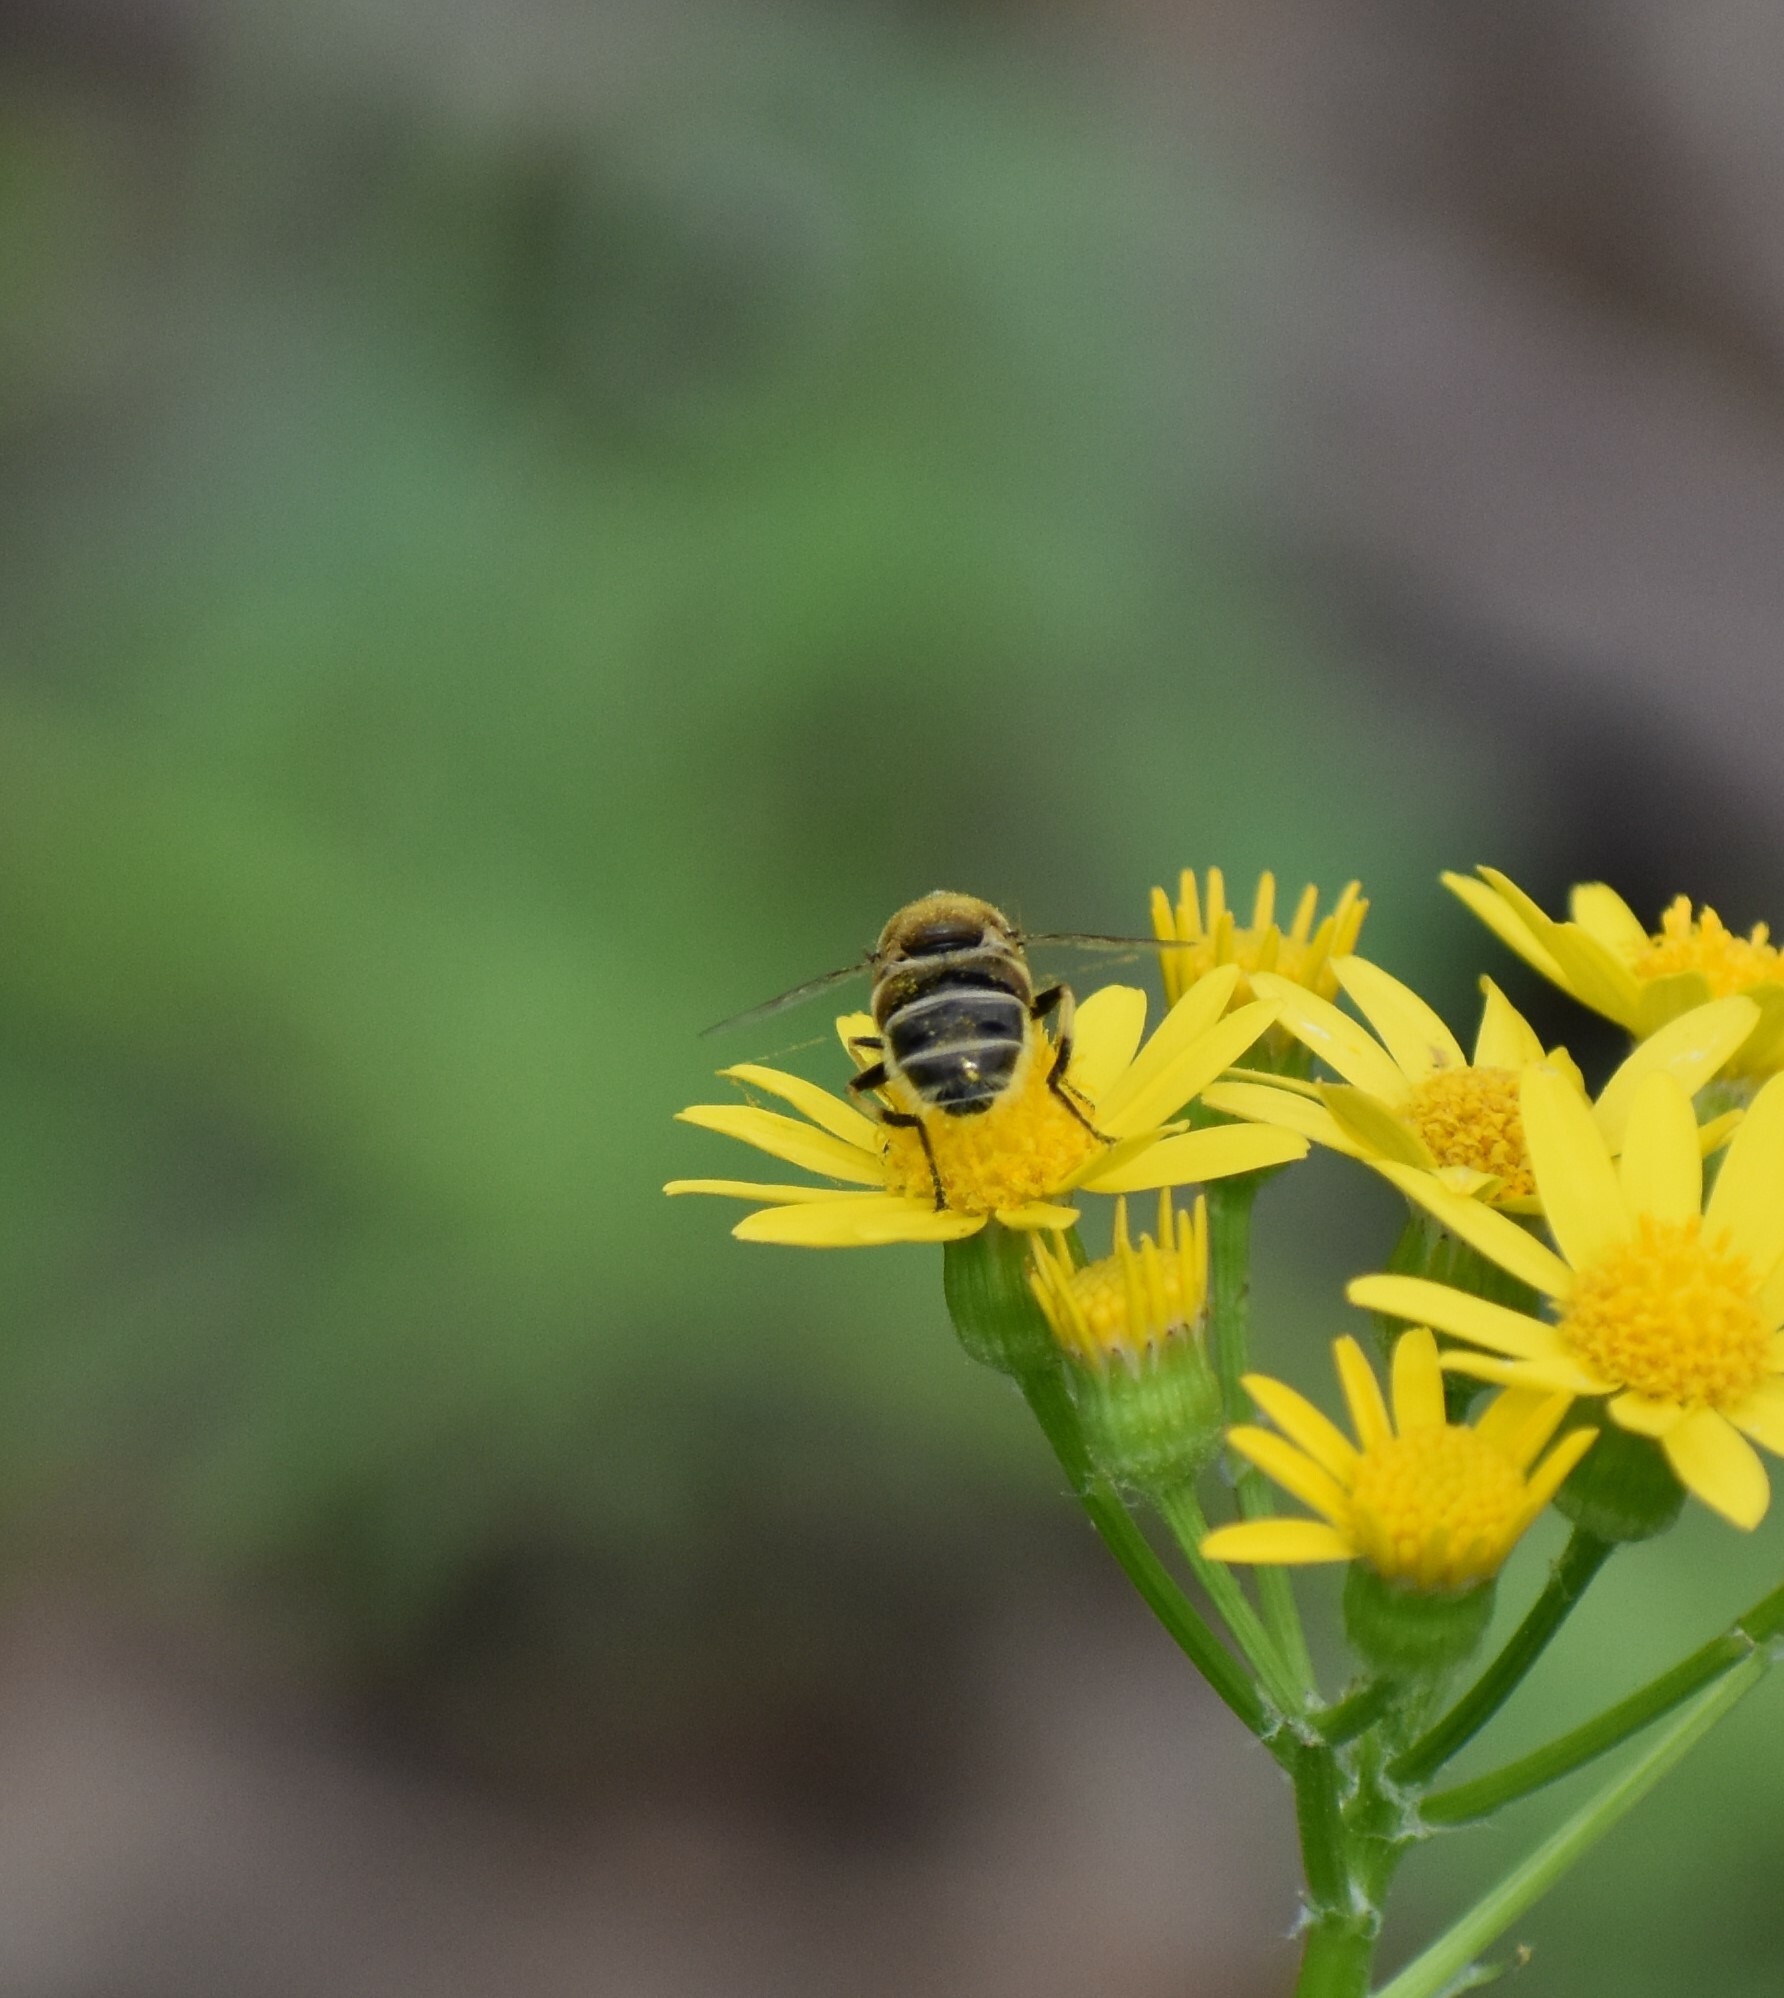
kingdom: Animalia
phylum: Arthropoda
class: Insecta
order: Diptera
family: Syrphidae
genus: Eristalis
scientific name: Eristalis stipator
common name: Yellow-shouldered drone fly
